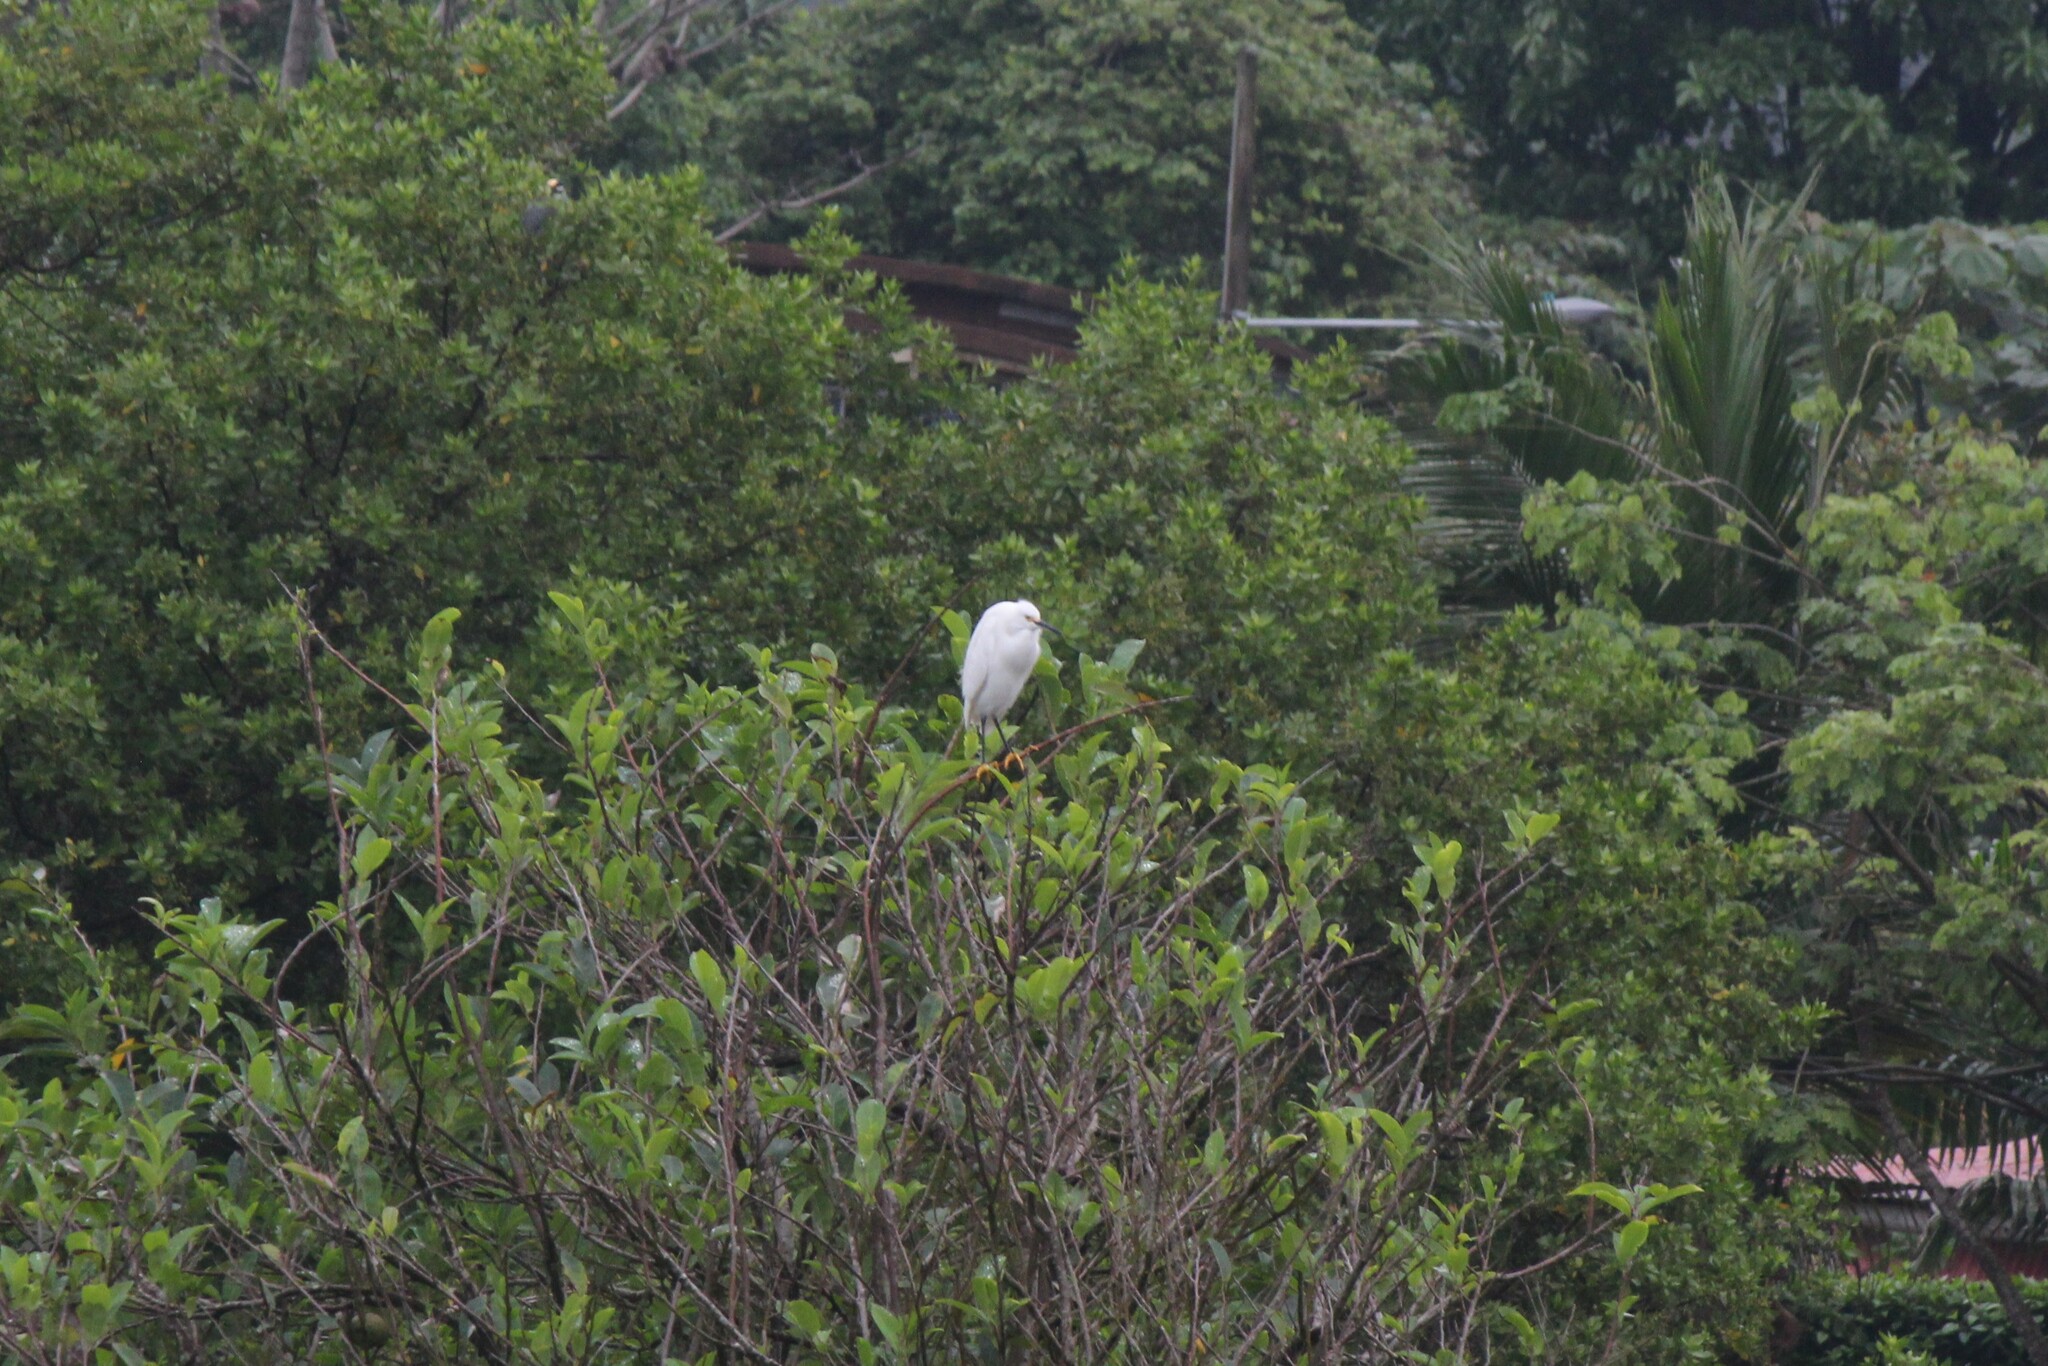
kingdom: Animalia
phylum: Chordata
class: Aves
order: Pelecaniformes
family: Ardeidae
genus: Egretta
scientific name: Egretta thula
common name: Snowy egret
